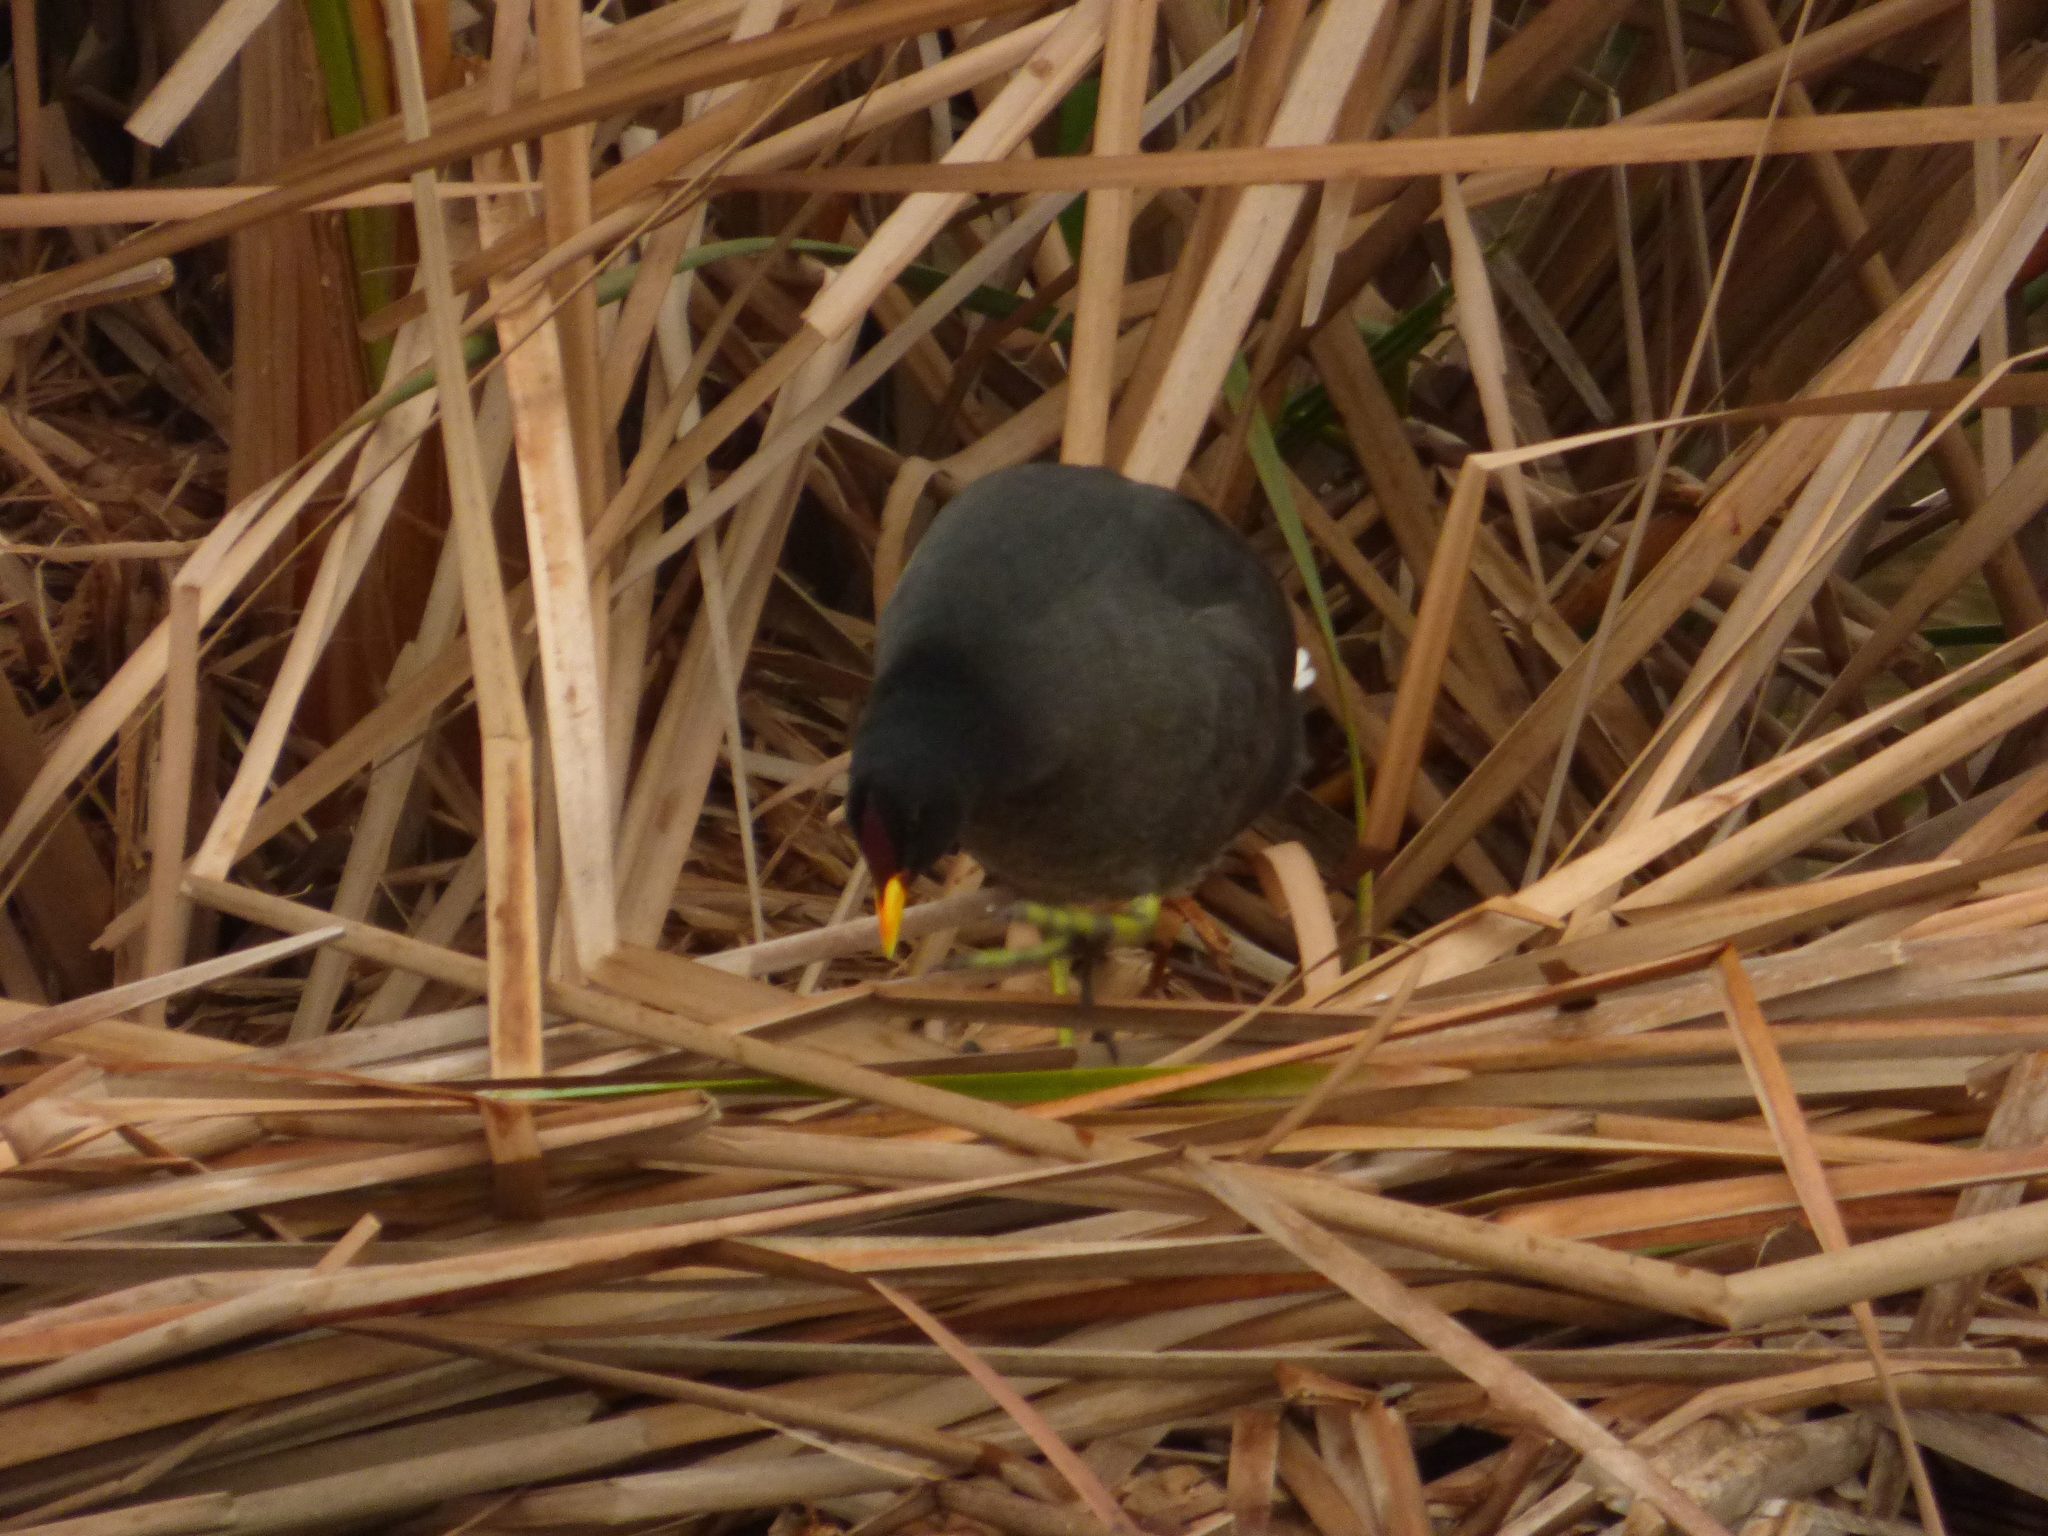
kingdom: Animalia
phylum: Chordata
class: Aves
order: Gruiformes
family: Rallidae
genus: Fulica
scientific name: Fulica rufifrons
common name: Red-fronted coot
